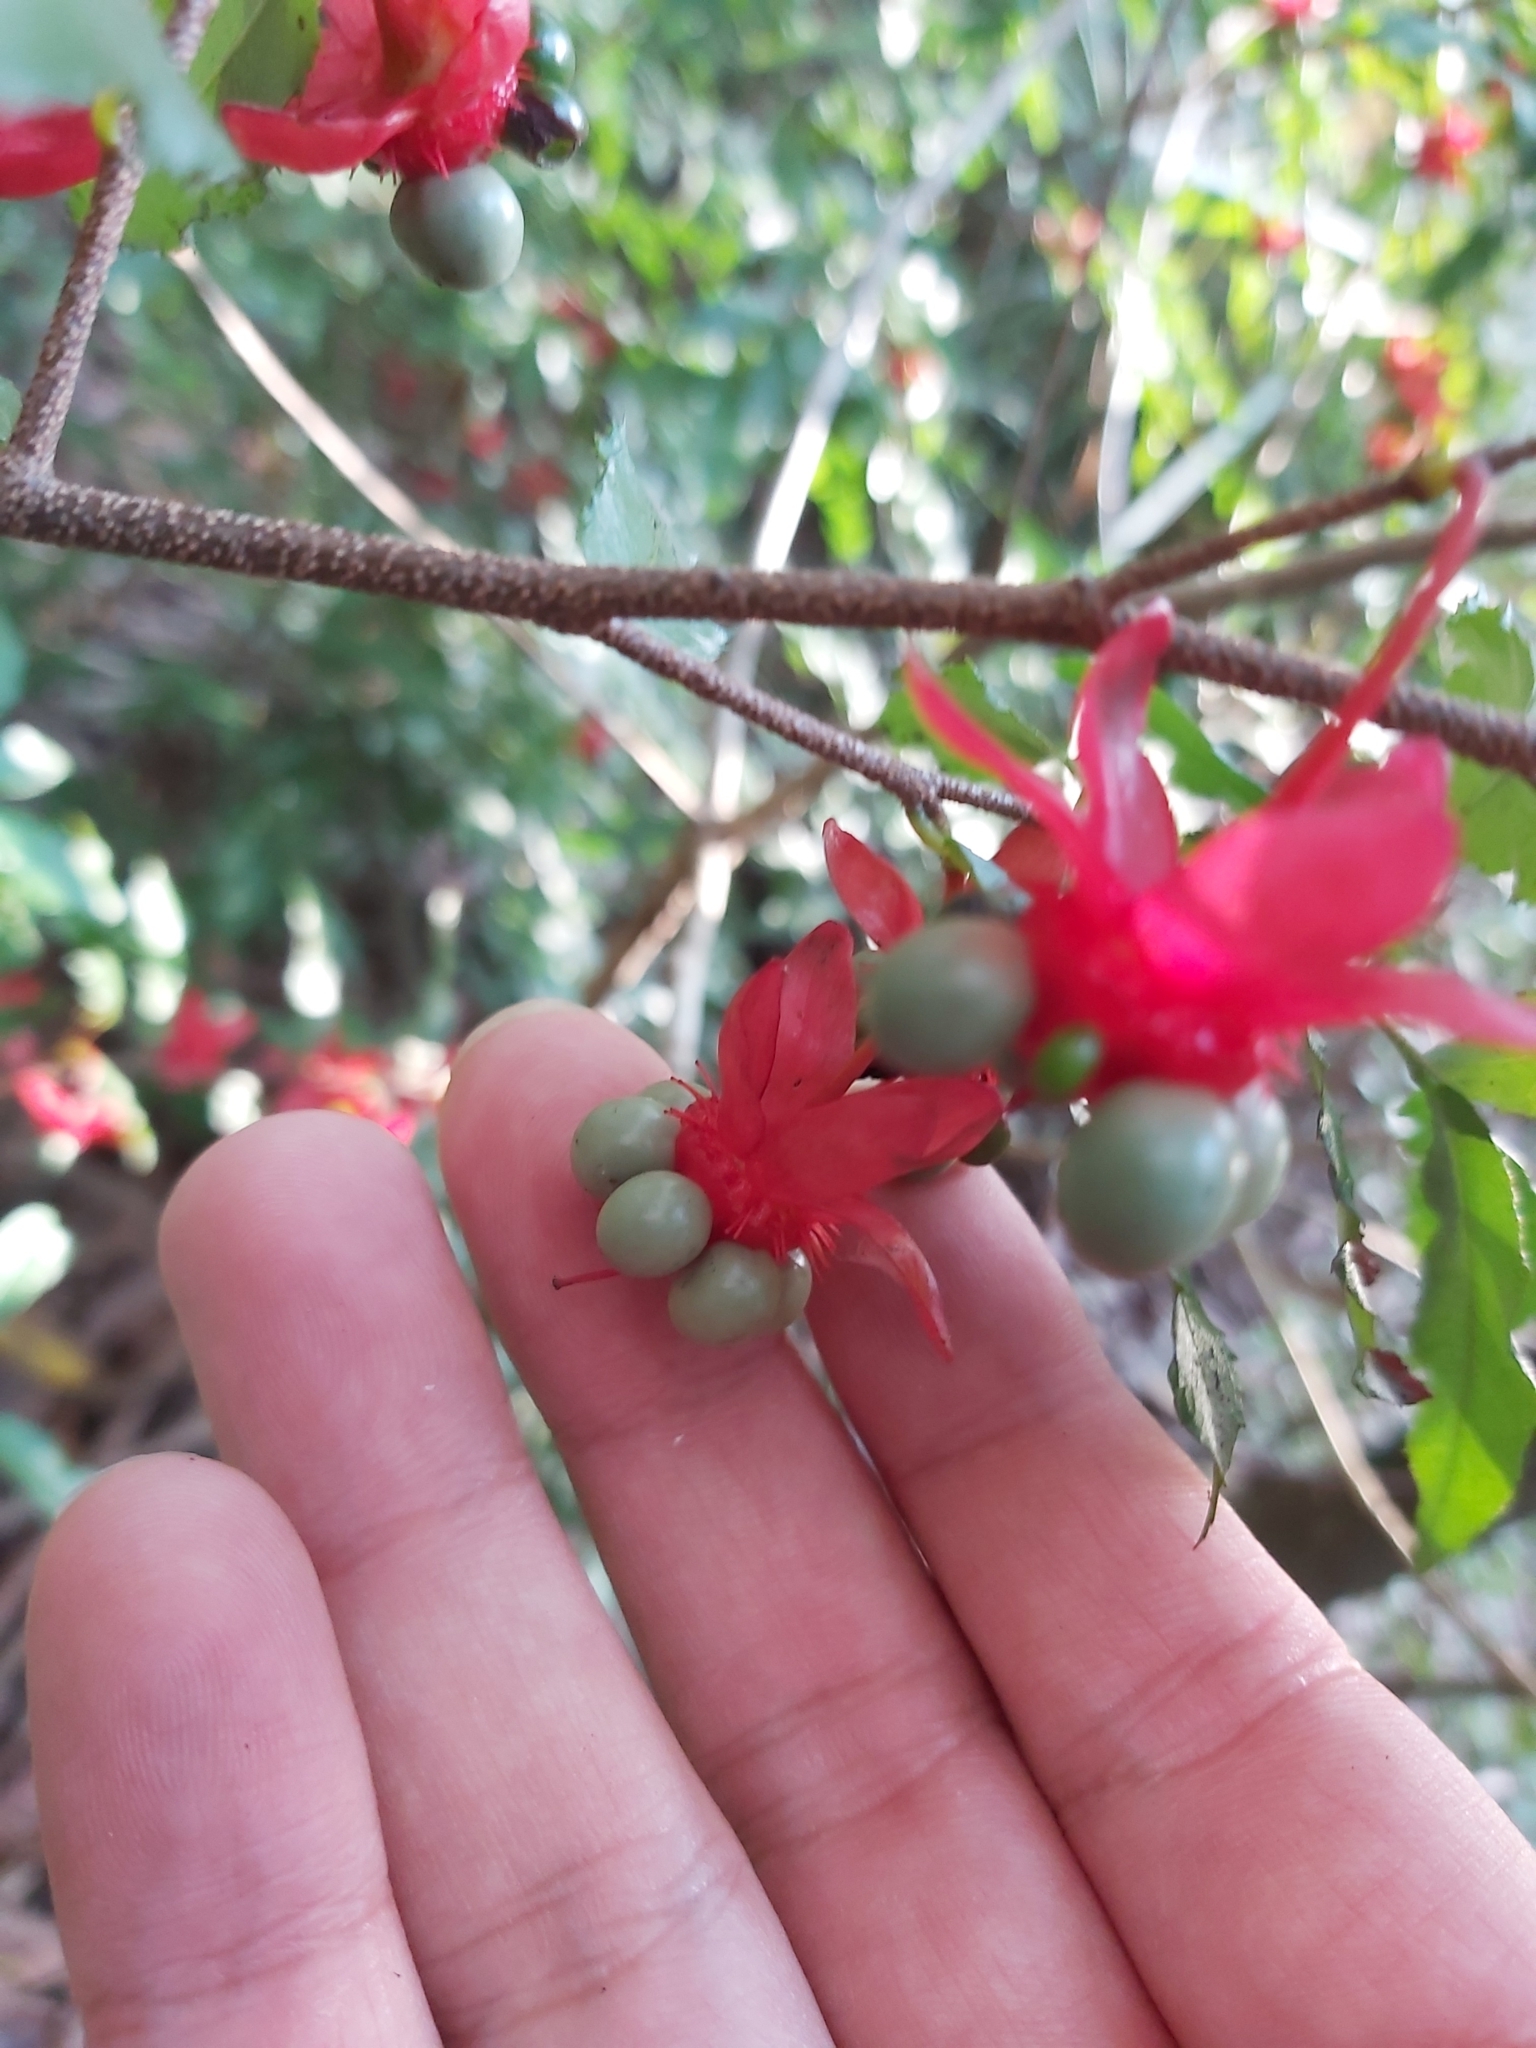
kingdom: Plantae
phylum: Tracheophyta
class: Magnoliopsida
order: Malpighiales
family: Ochnaceae
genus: Ochna
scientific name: Ochna serrulata
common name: Mickey mouse plant
